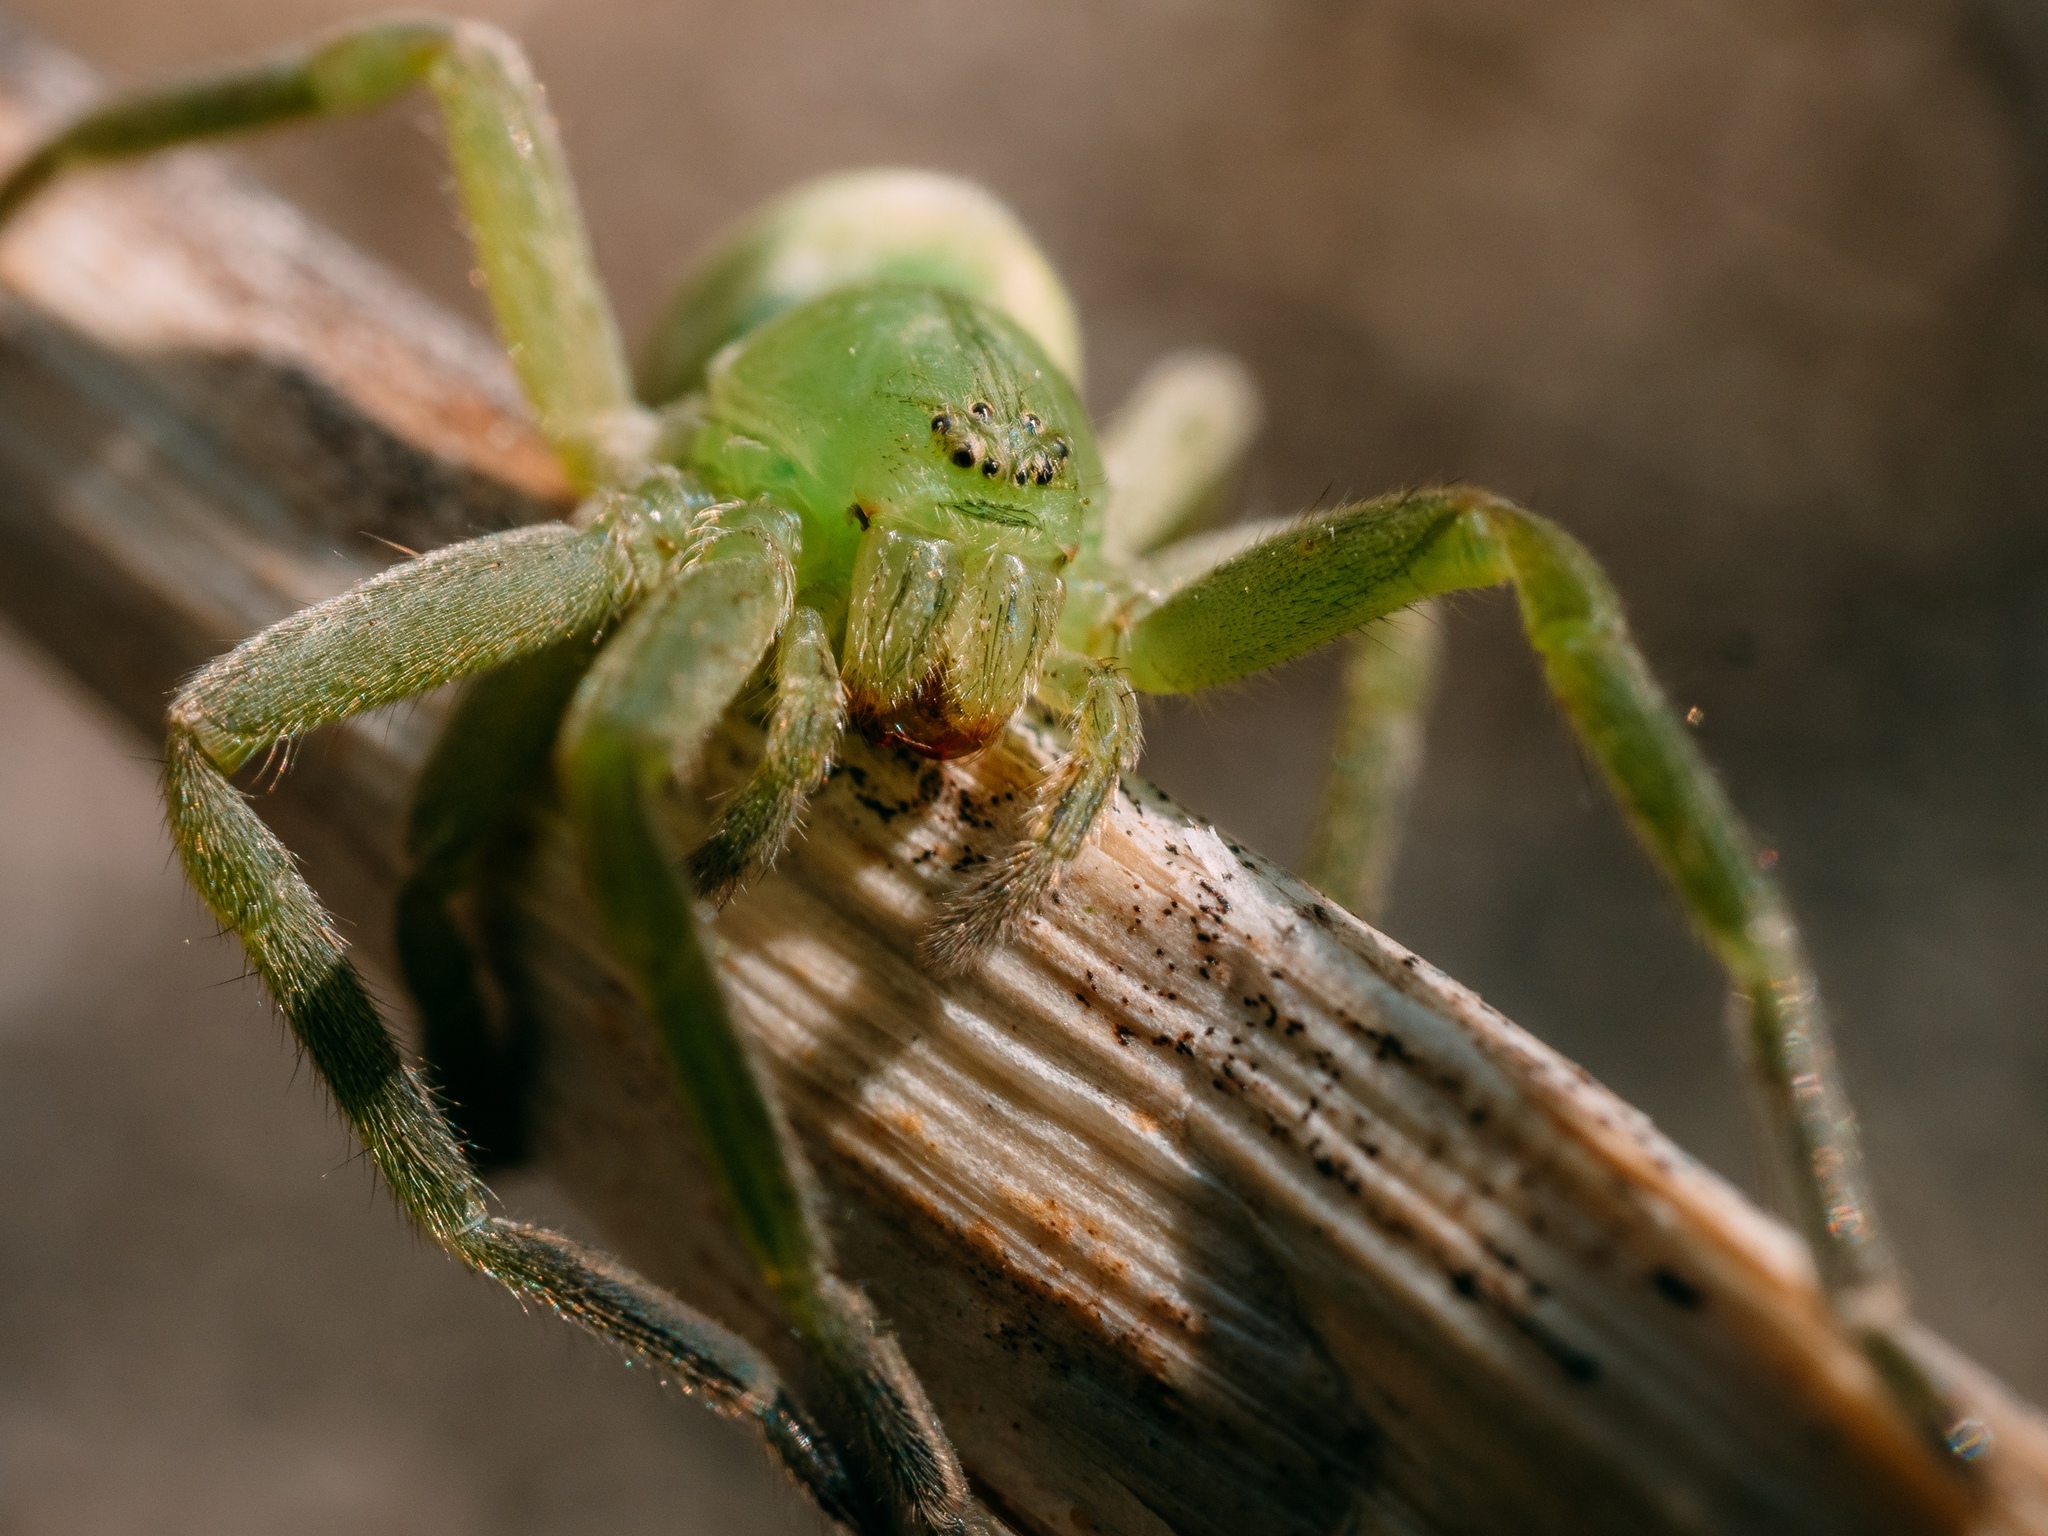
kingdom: Animalia
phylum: Arthropoda
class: Arachnida
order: Araneae
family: Sparassidae
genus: Micrommata
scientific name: Micrommata virescens
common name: Green spider
